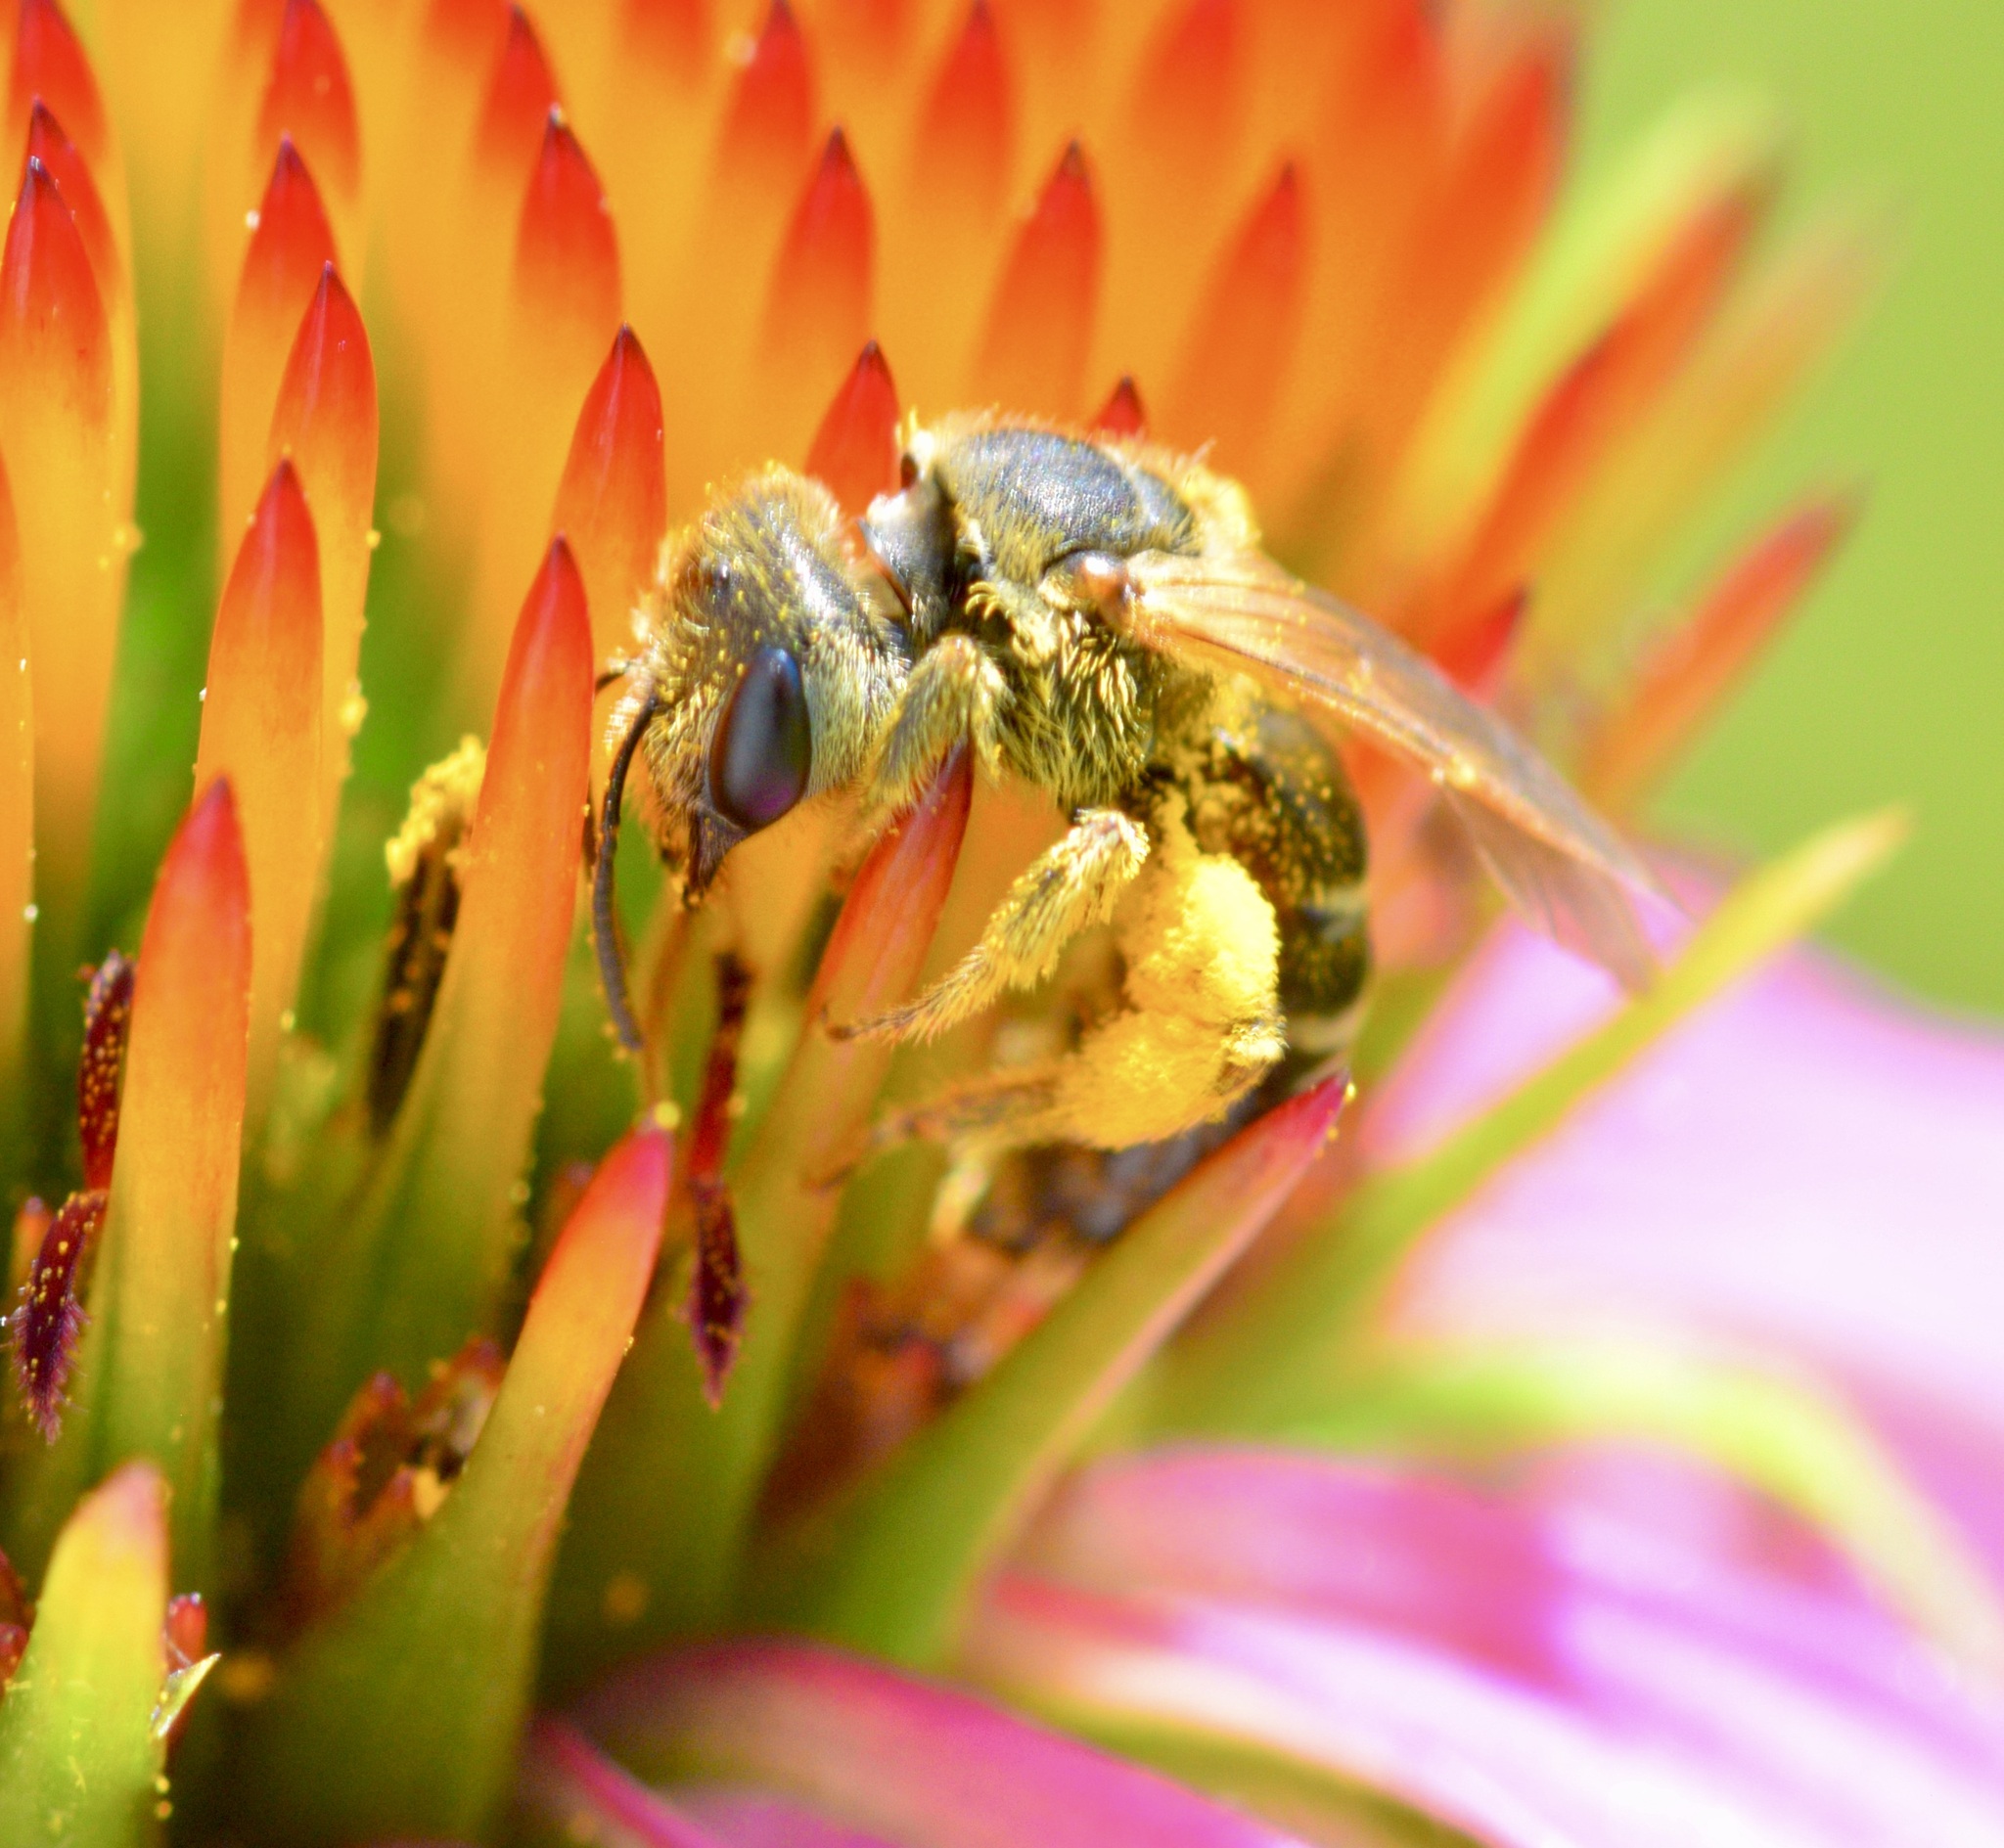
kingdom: Animalia
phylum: Arthropoda
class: Insecta
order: Hymenoptera
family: Halictidae
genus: Halictus
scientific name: Halictus ligatus
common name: Ligated furrow bee
